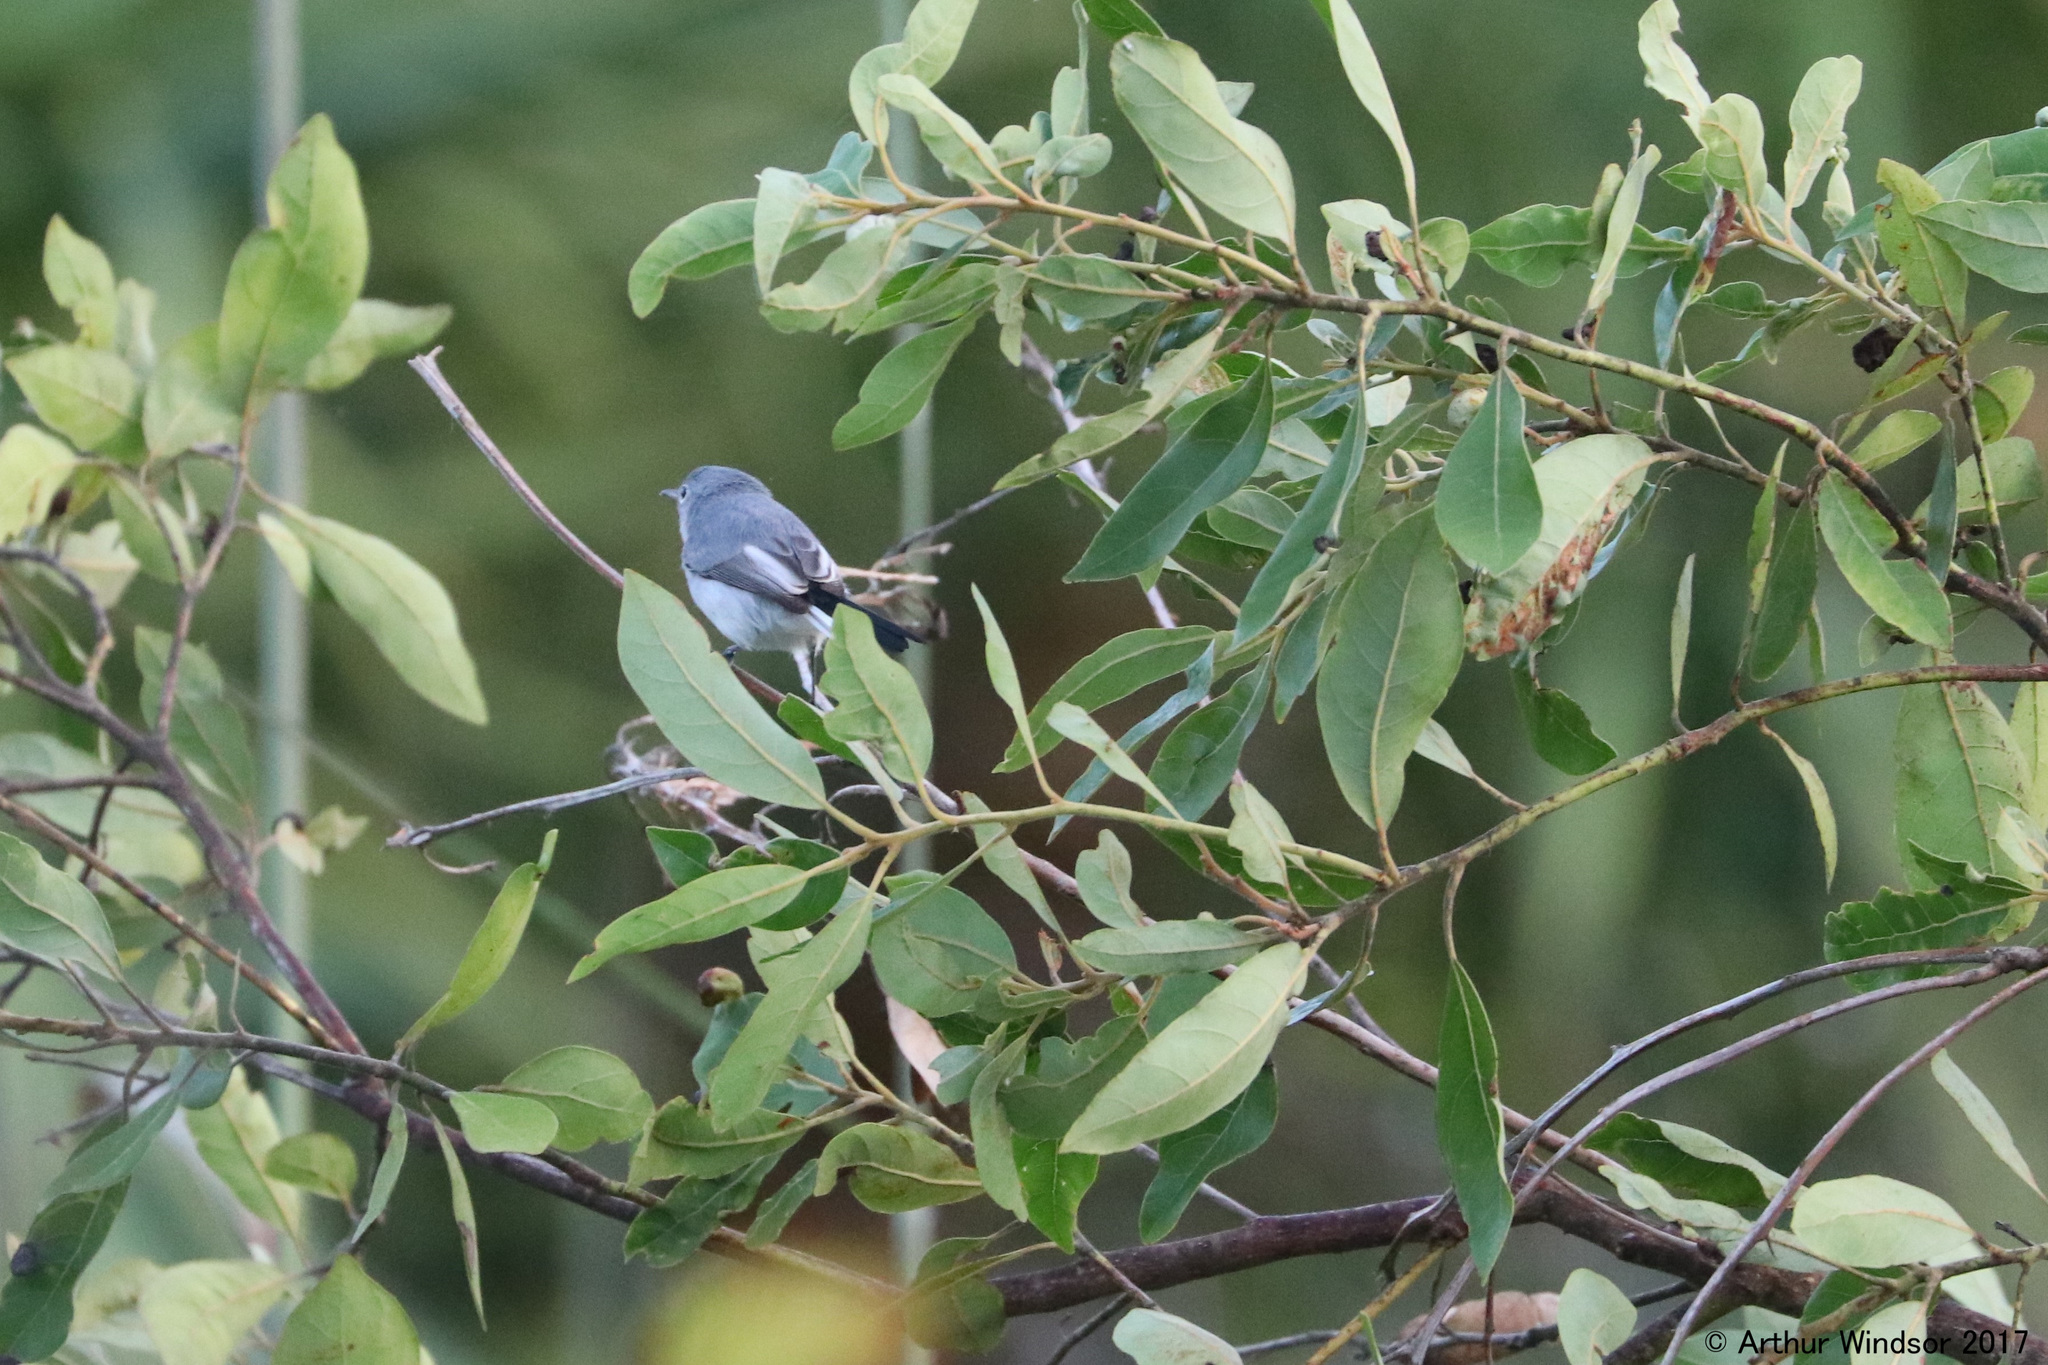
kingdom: Animalia
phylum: Chordata
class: Aves
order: Passeriformes
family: Polioptilidae
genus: Polioptila
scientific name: Polioptila caerulea
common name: Blue-gray gnatcatcher
